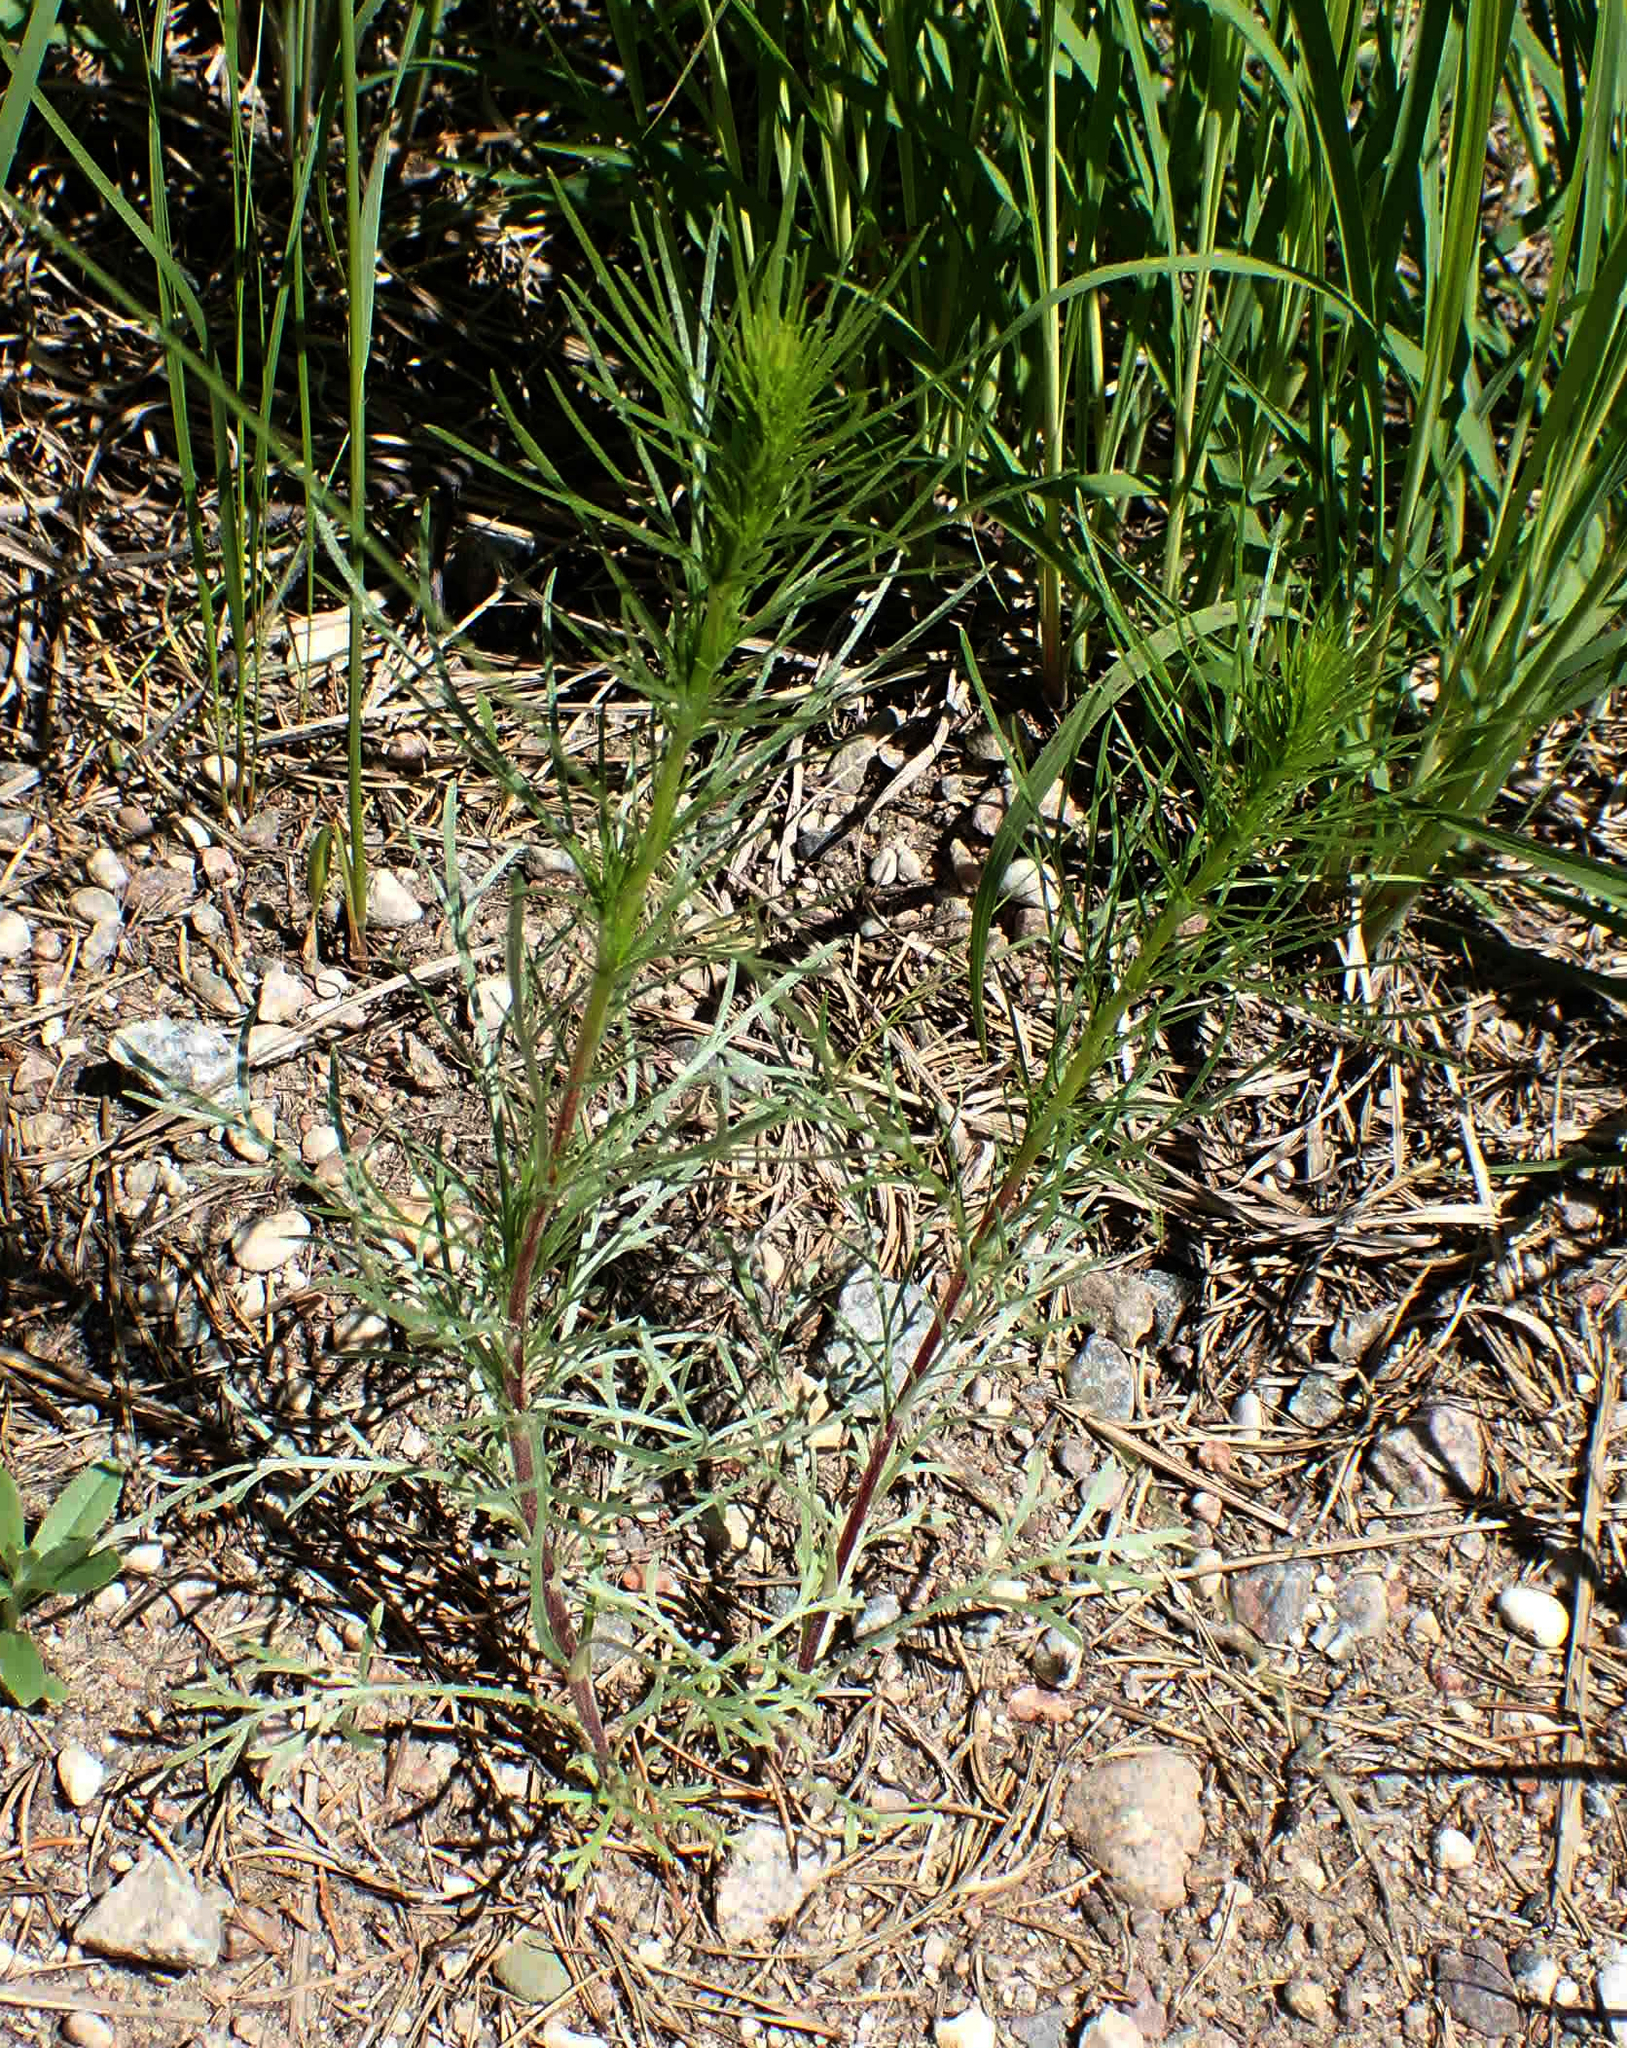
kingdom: Plantae
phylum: Tracheophyta
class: Magnoliopsida
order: Asterales
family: Asteraceae
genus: Artemisia
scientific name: Artemisia campestris
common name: Field wormwood
